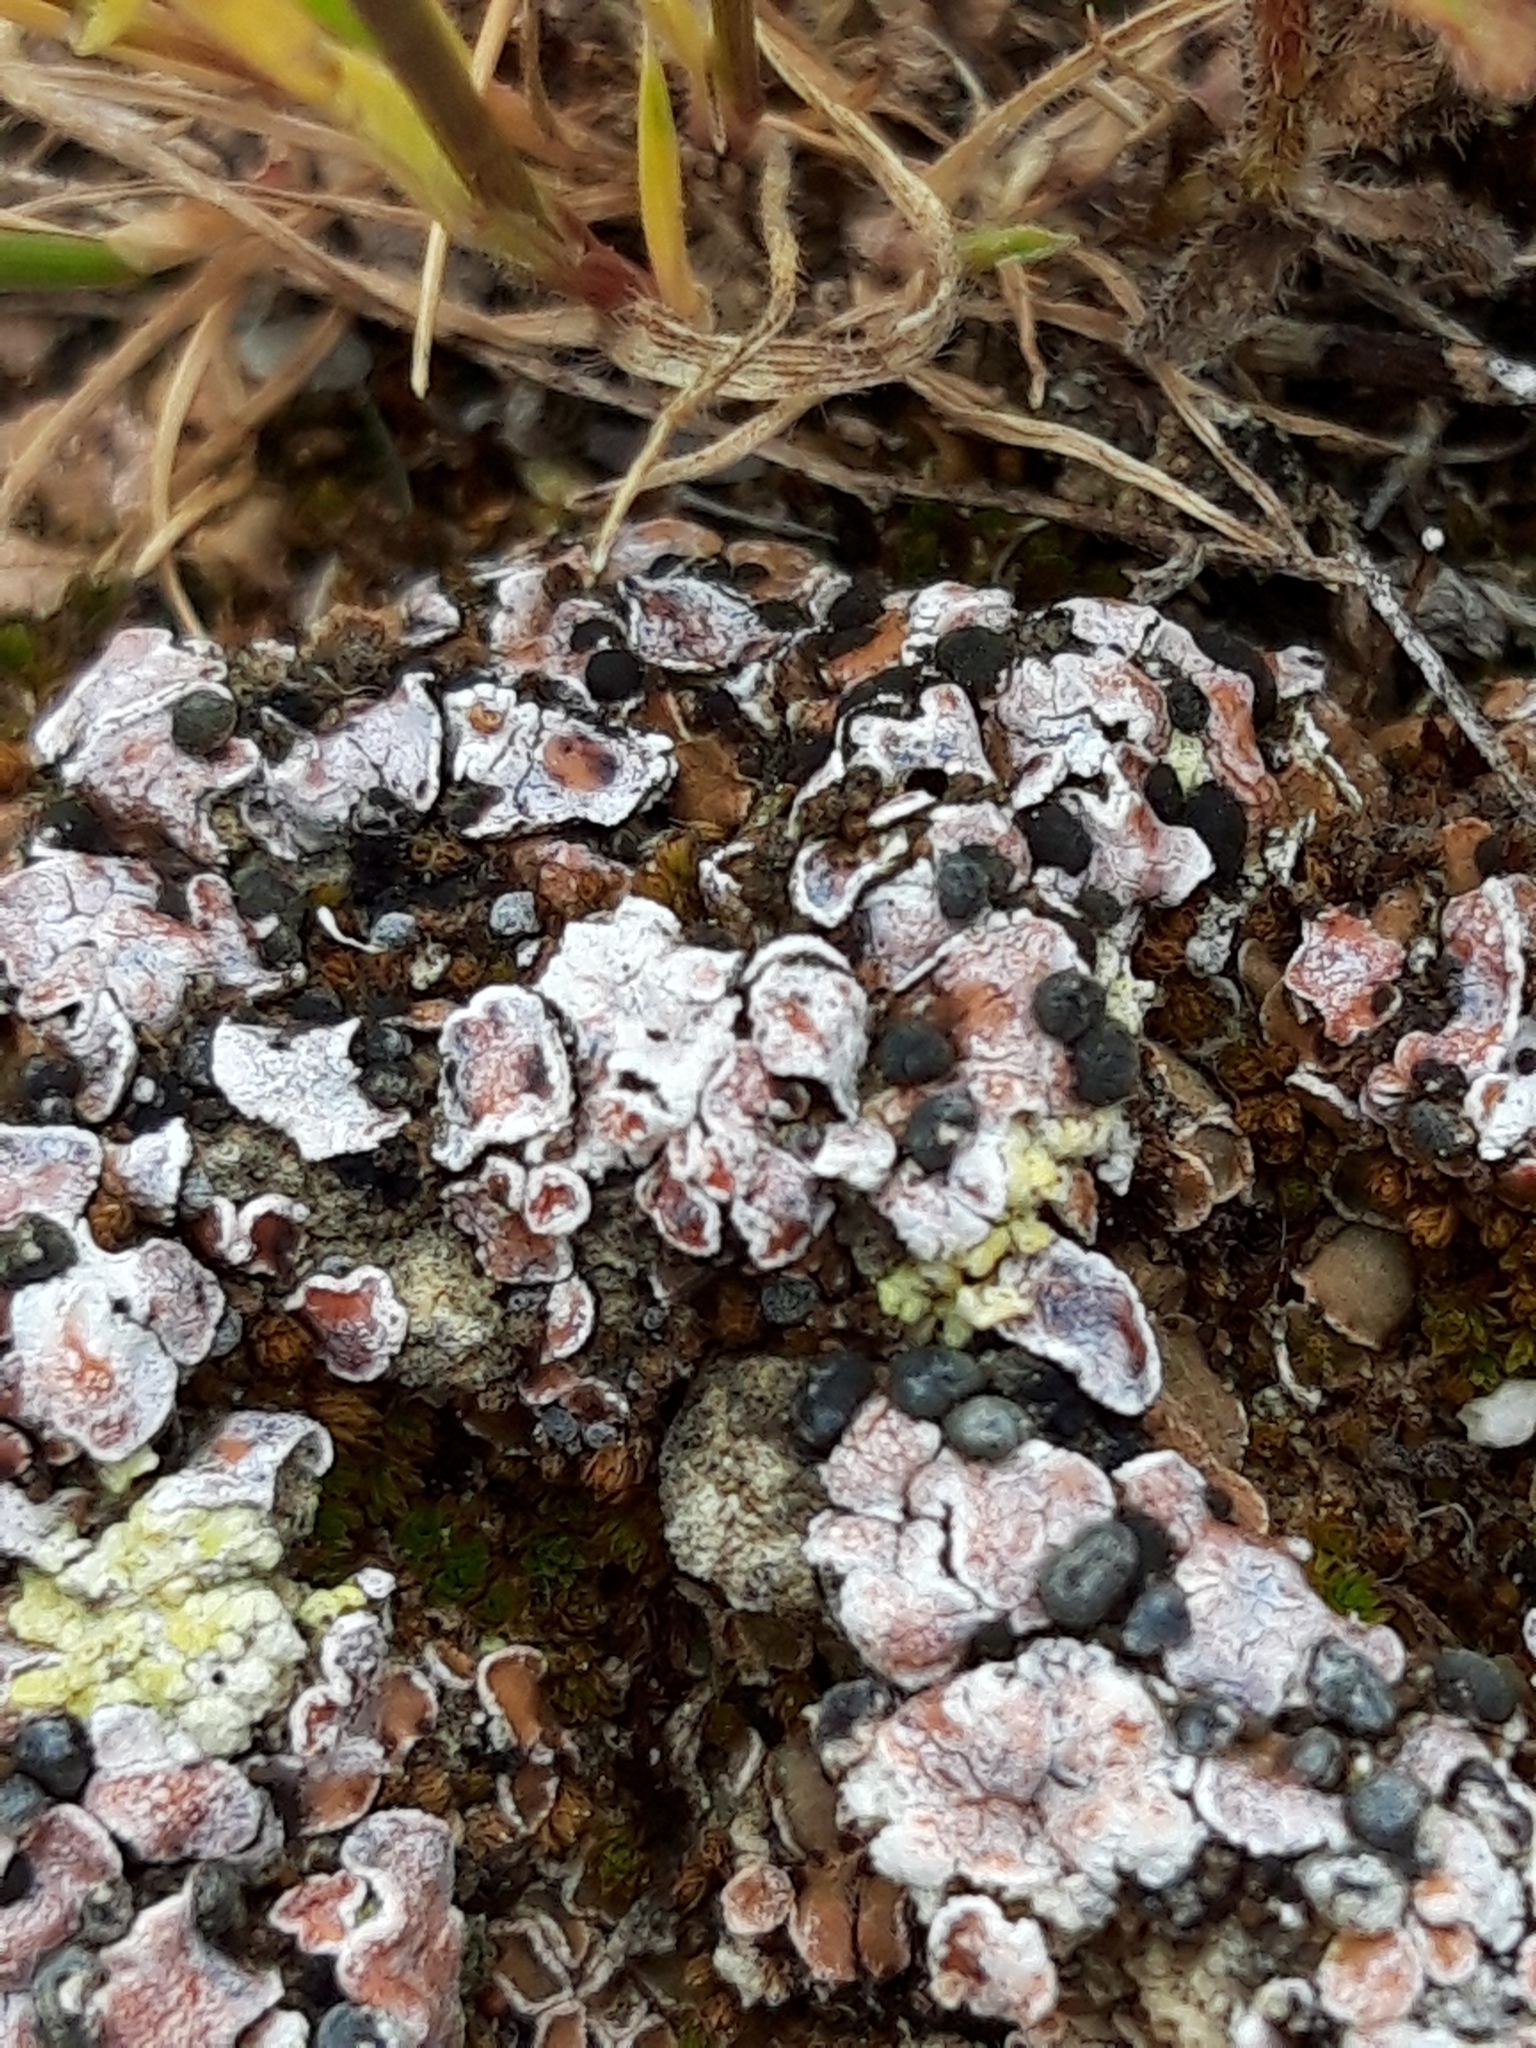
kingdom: Fungi
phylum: Ascomycota
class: Lecanoromycetes
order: Lecanorales
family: Psoraceae
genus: Psora
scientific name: Psora decipiens
